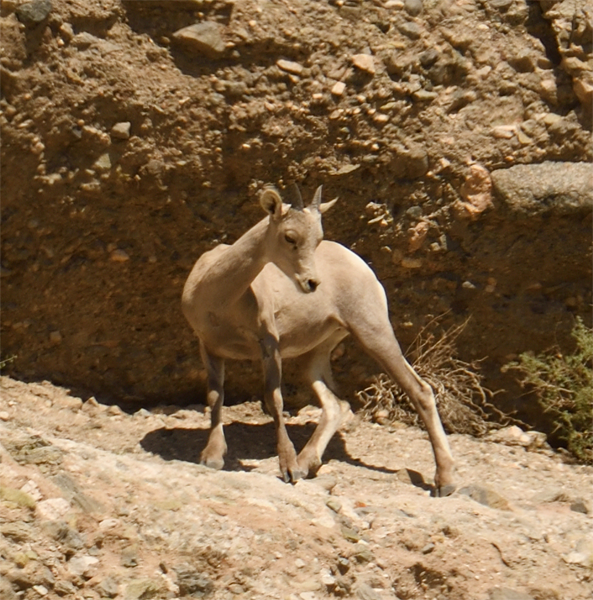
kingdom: Animalia
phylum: Chordata
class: Mammalia
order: Artiodactyla
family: Bovidae
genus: Ovis
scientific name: Ovis canadensis
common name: Bighorn sheep
